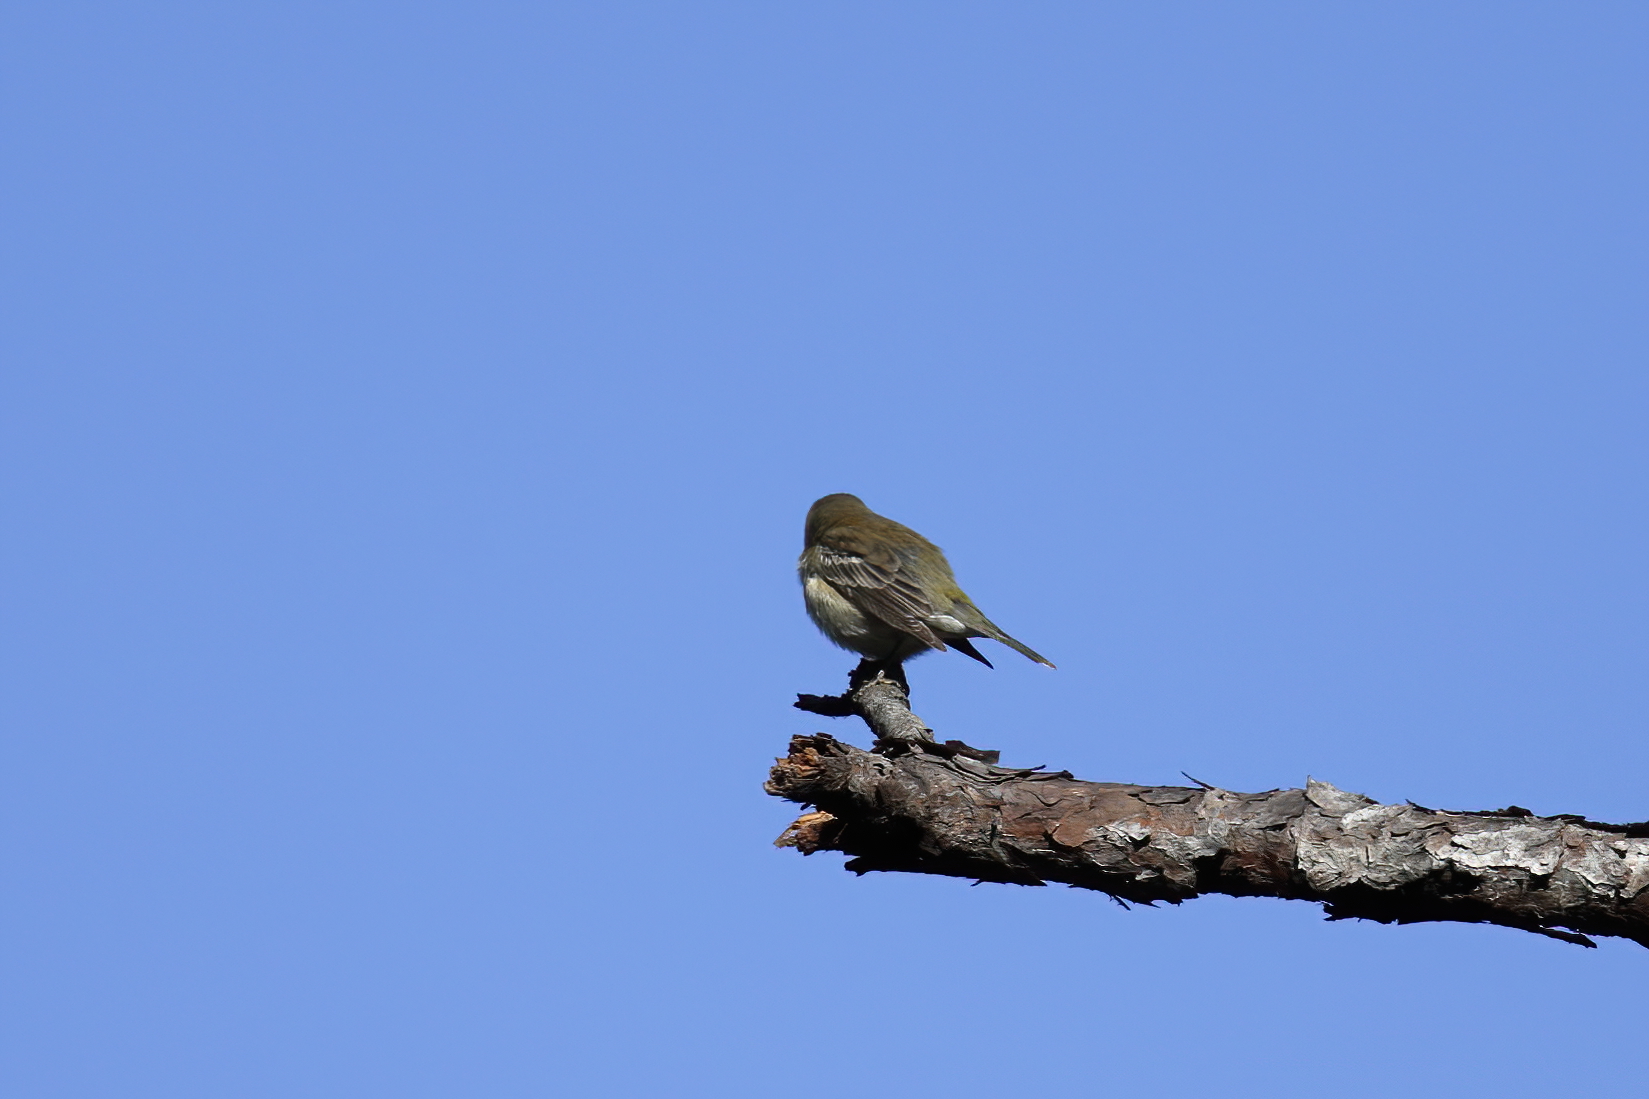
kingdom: Animalia
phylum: Chordata
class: Aves
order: Passeriformes
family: Parulidae
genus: Setophaga
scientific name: Setophaga pinus
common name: Pine warbler
